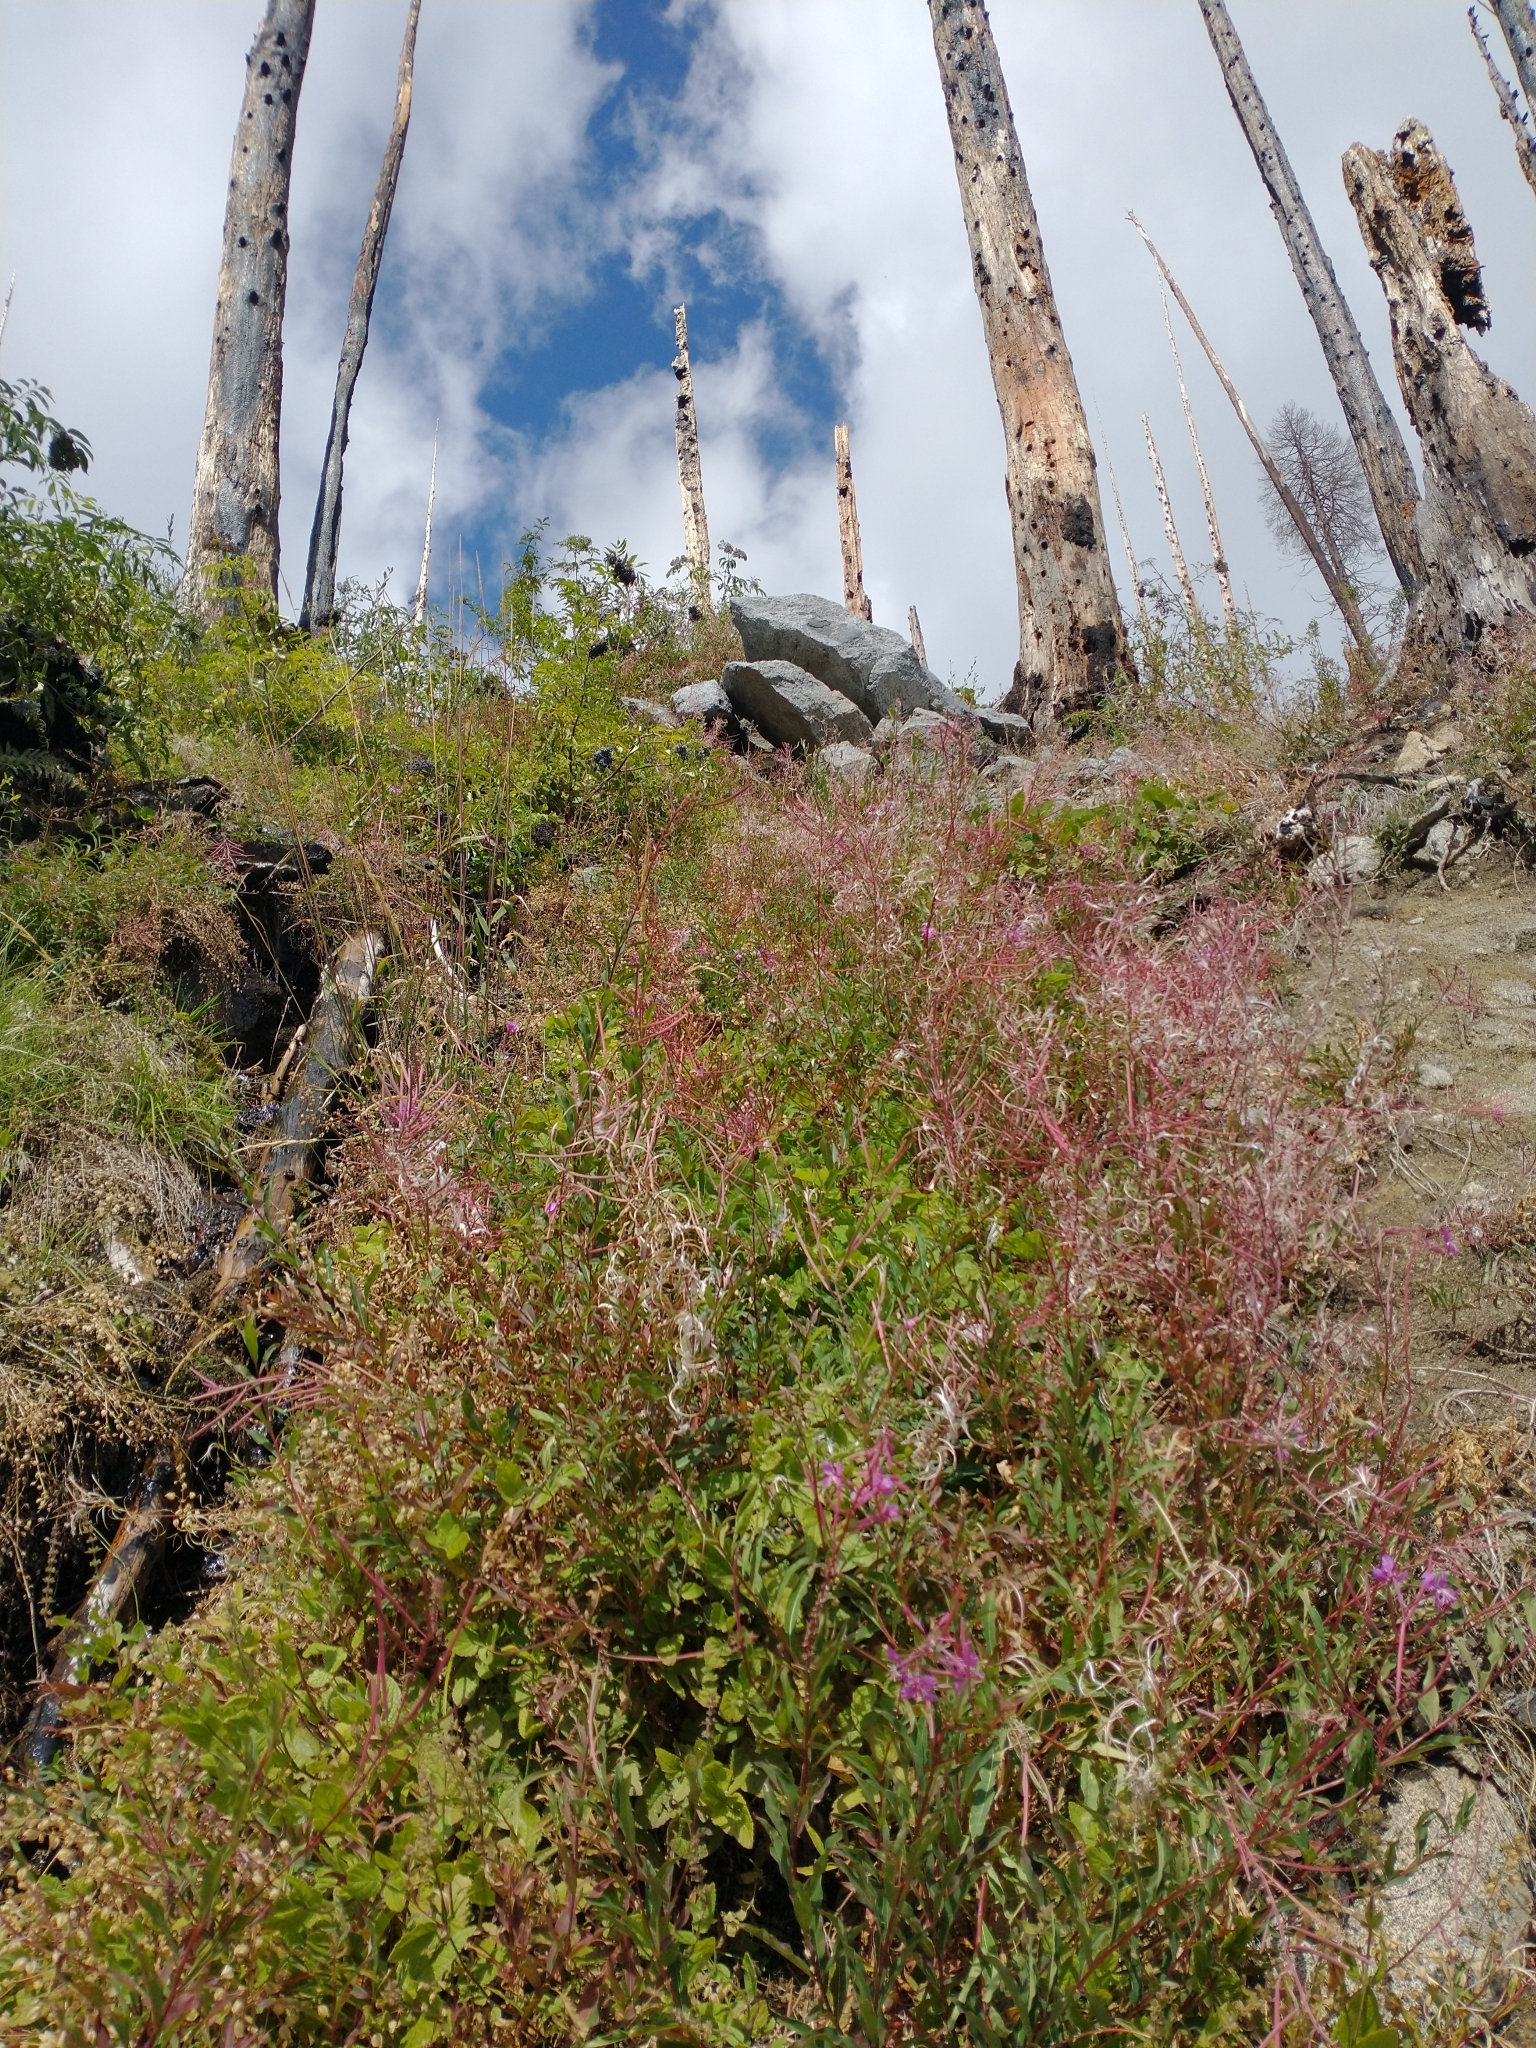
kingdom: Plantae
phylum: Tracheophyta
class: Magnoliopsida
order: Myrtales
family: Onagraceae
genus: Chamaenerion
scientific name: Chamaenerion angustifolium
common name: Fireweed
